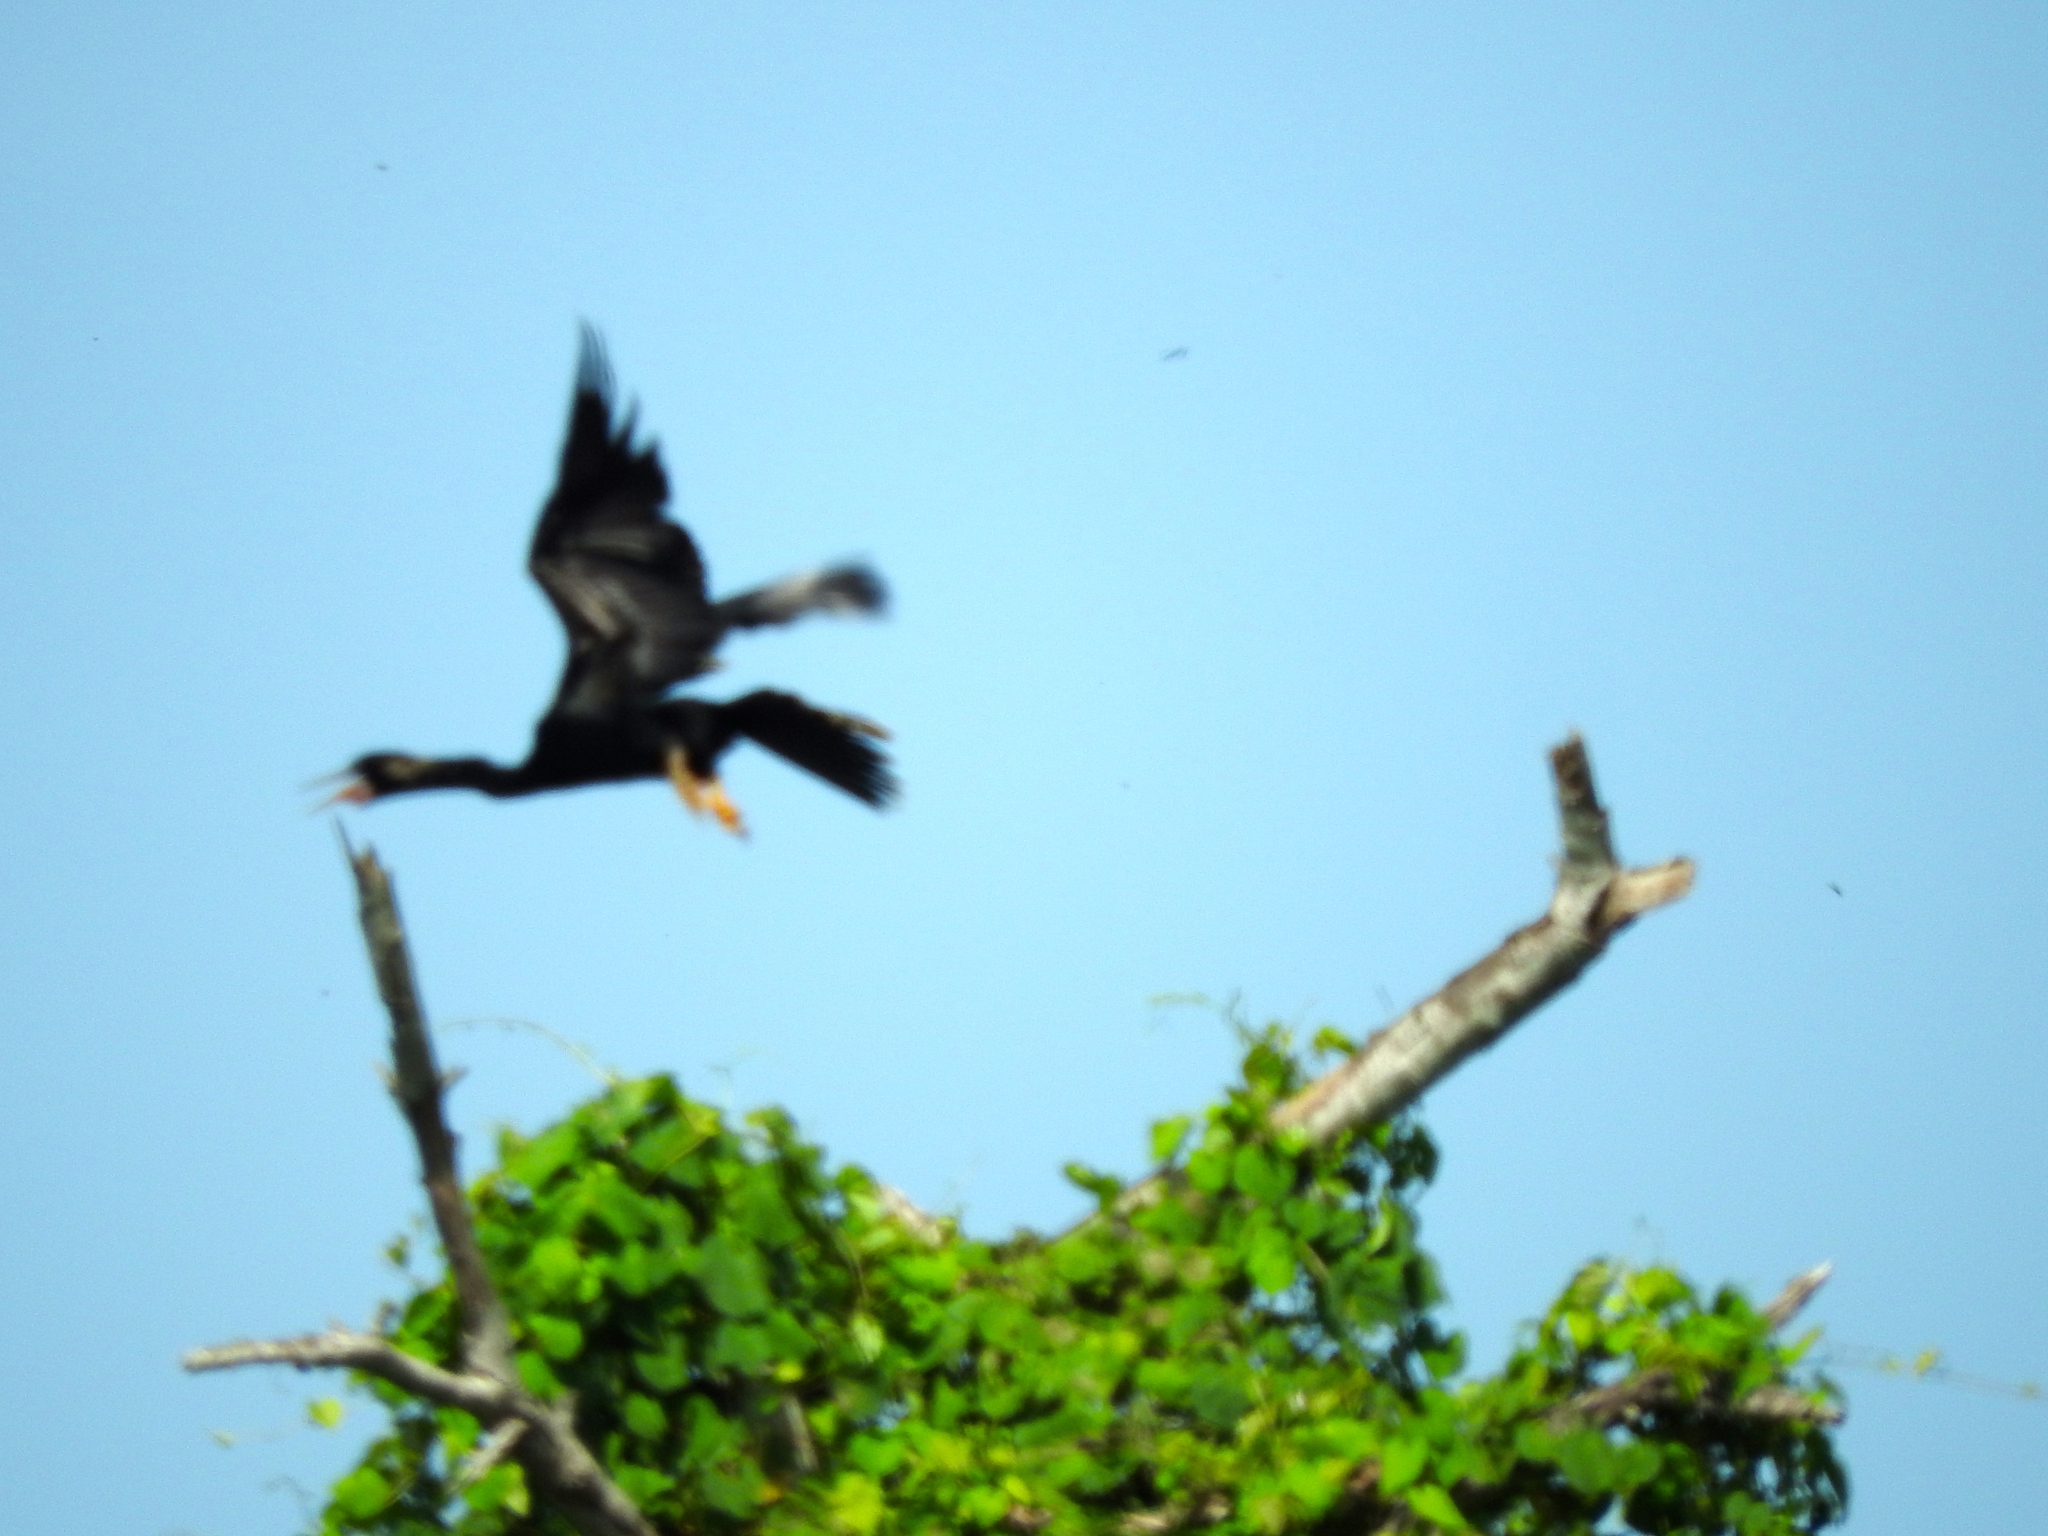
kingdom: Animalia
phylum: Chordata
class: Aves
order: Suliformes
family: Anhingidae
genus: Anhinga
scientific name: Anhinga anhinga
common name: Anhinga
